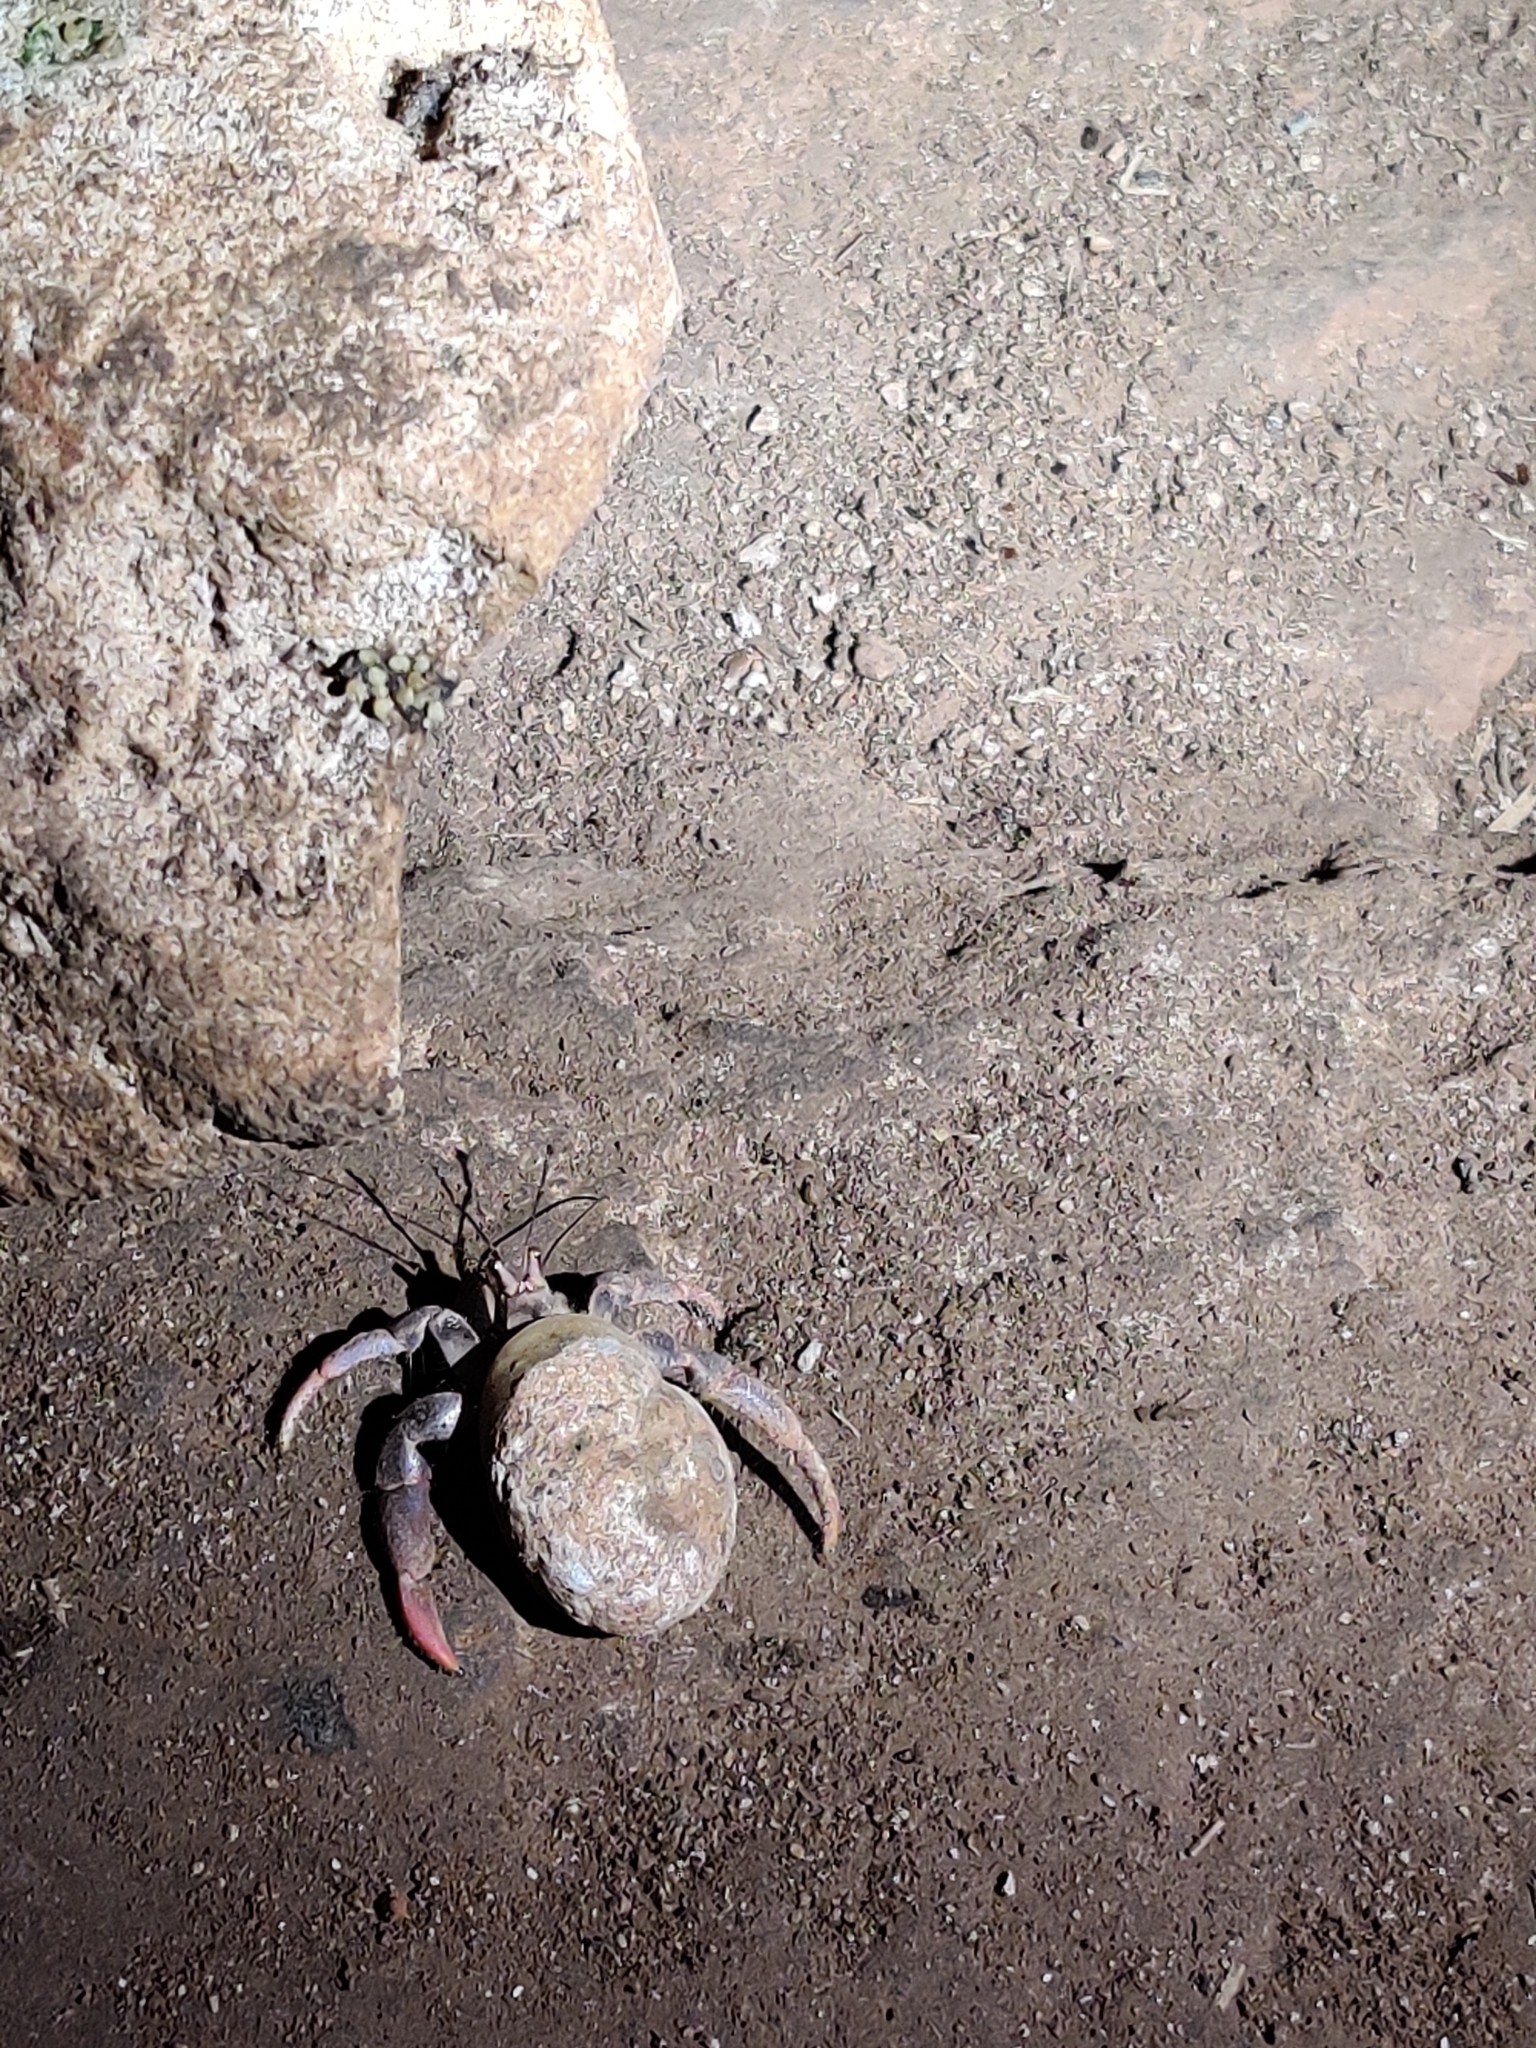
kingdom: Animalia
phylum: Arthropoda
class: Malacostraca
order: Decapoda
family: Coenobitidae
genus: Coenobita
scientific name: Coenobita clypeatus
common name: Caribbean hermit crab
